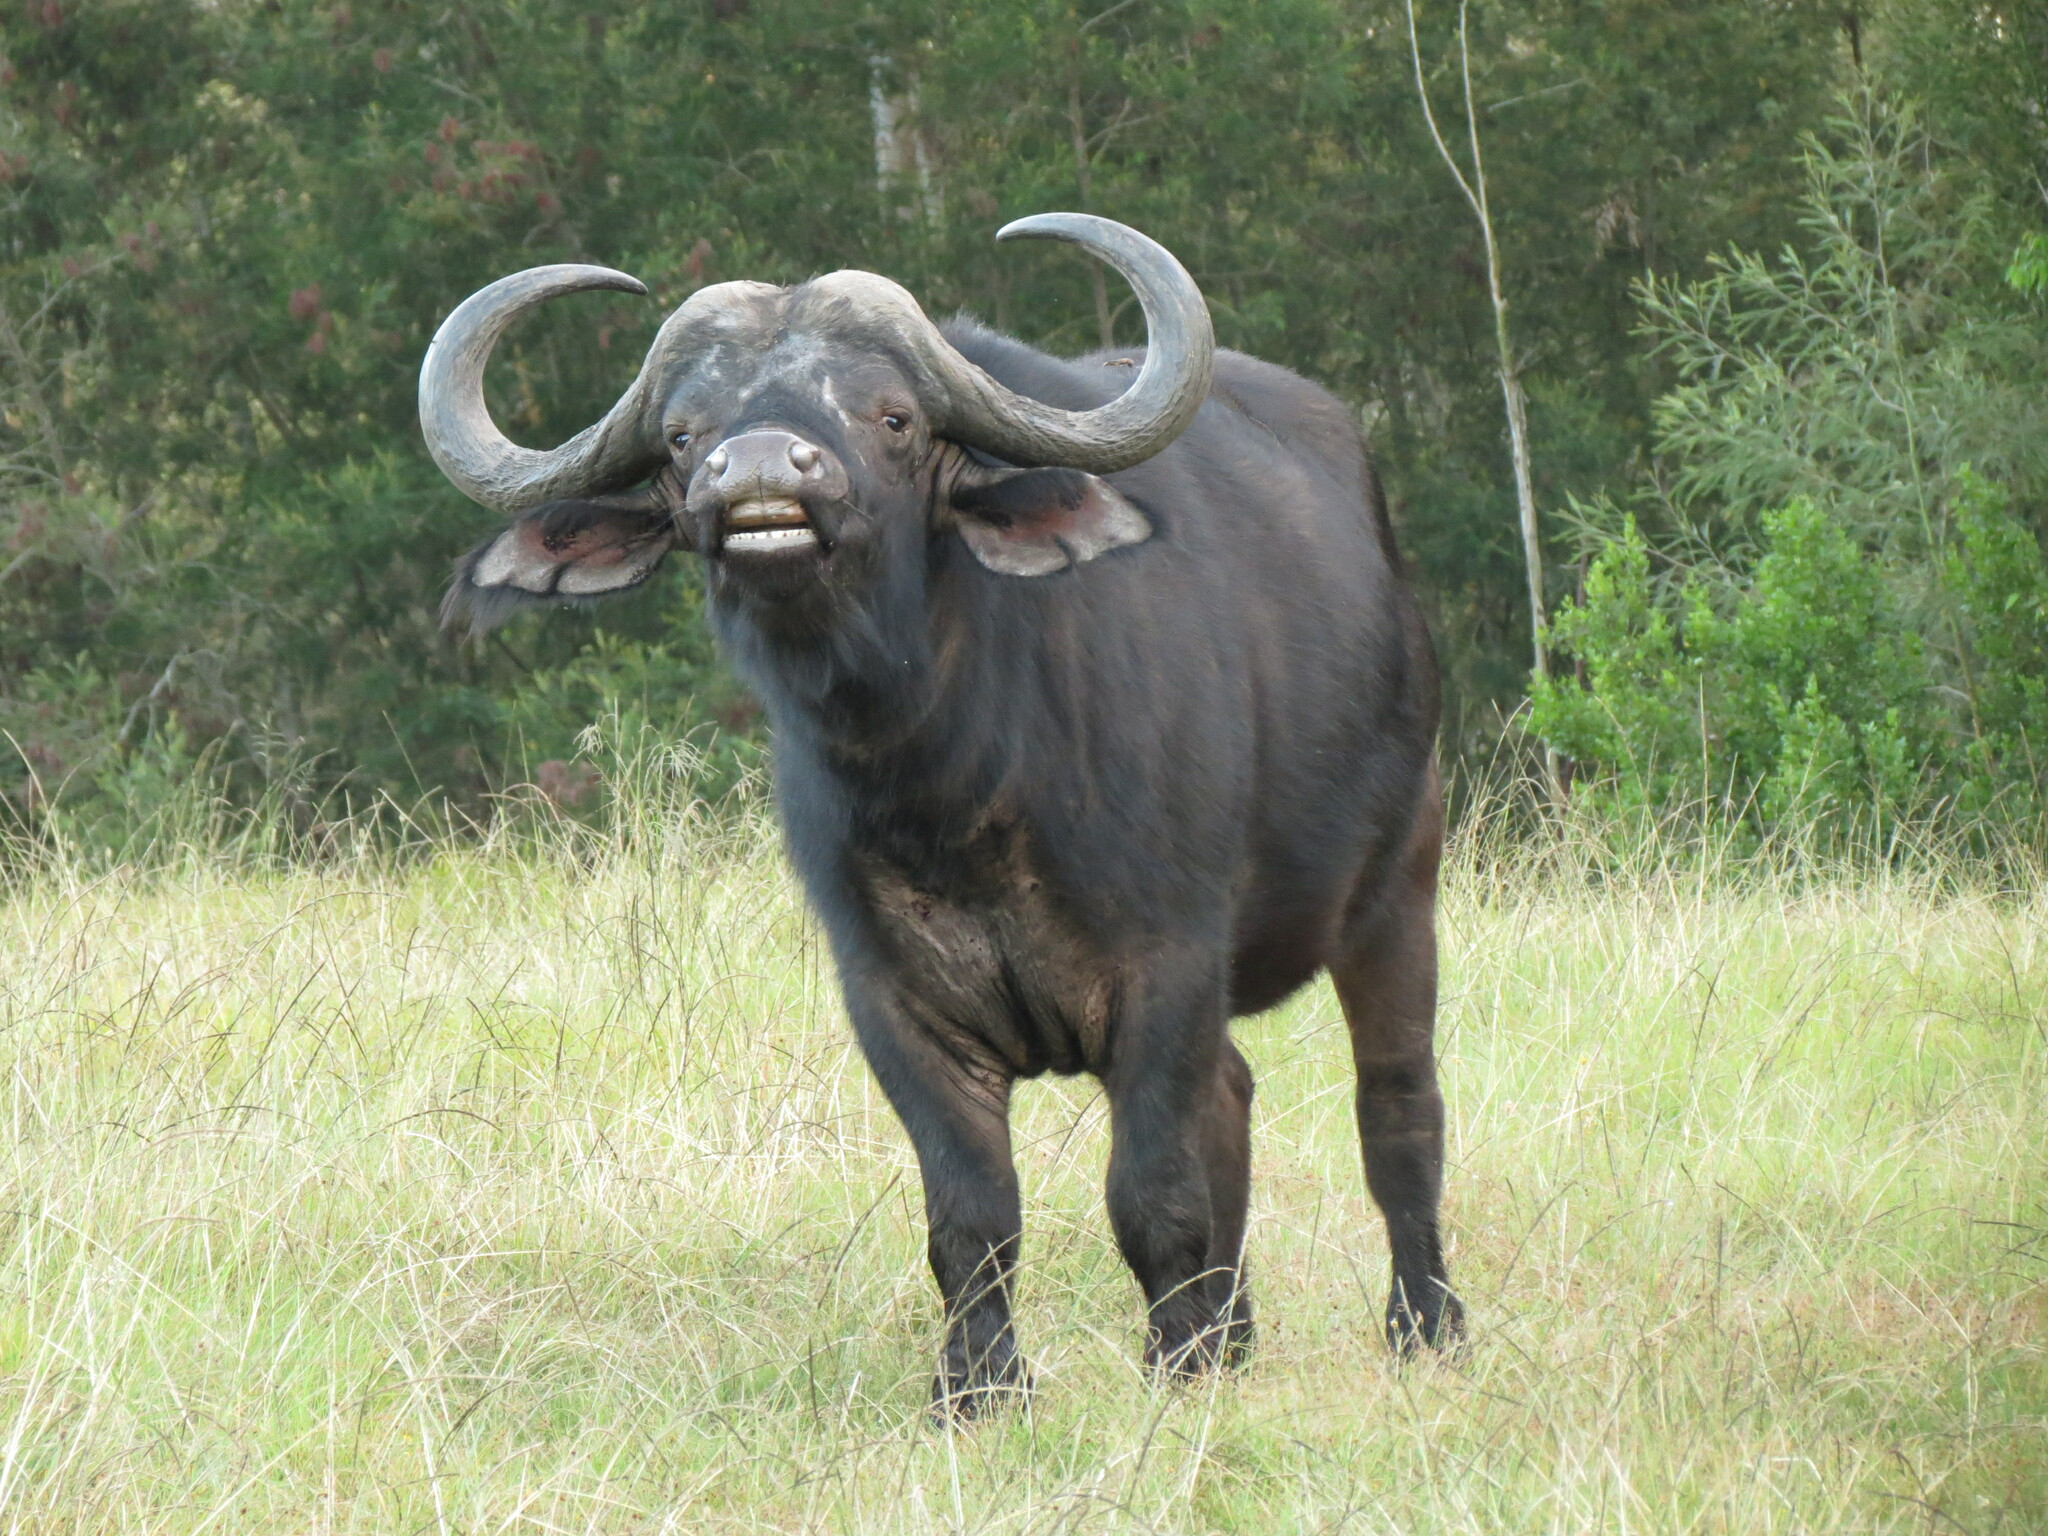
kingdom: Animalia
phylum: Chordata
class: Mammalia
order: Artiodactyla
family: Bovidae
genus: Syncerus
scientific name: Syncerus caffer
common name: African buffalo
